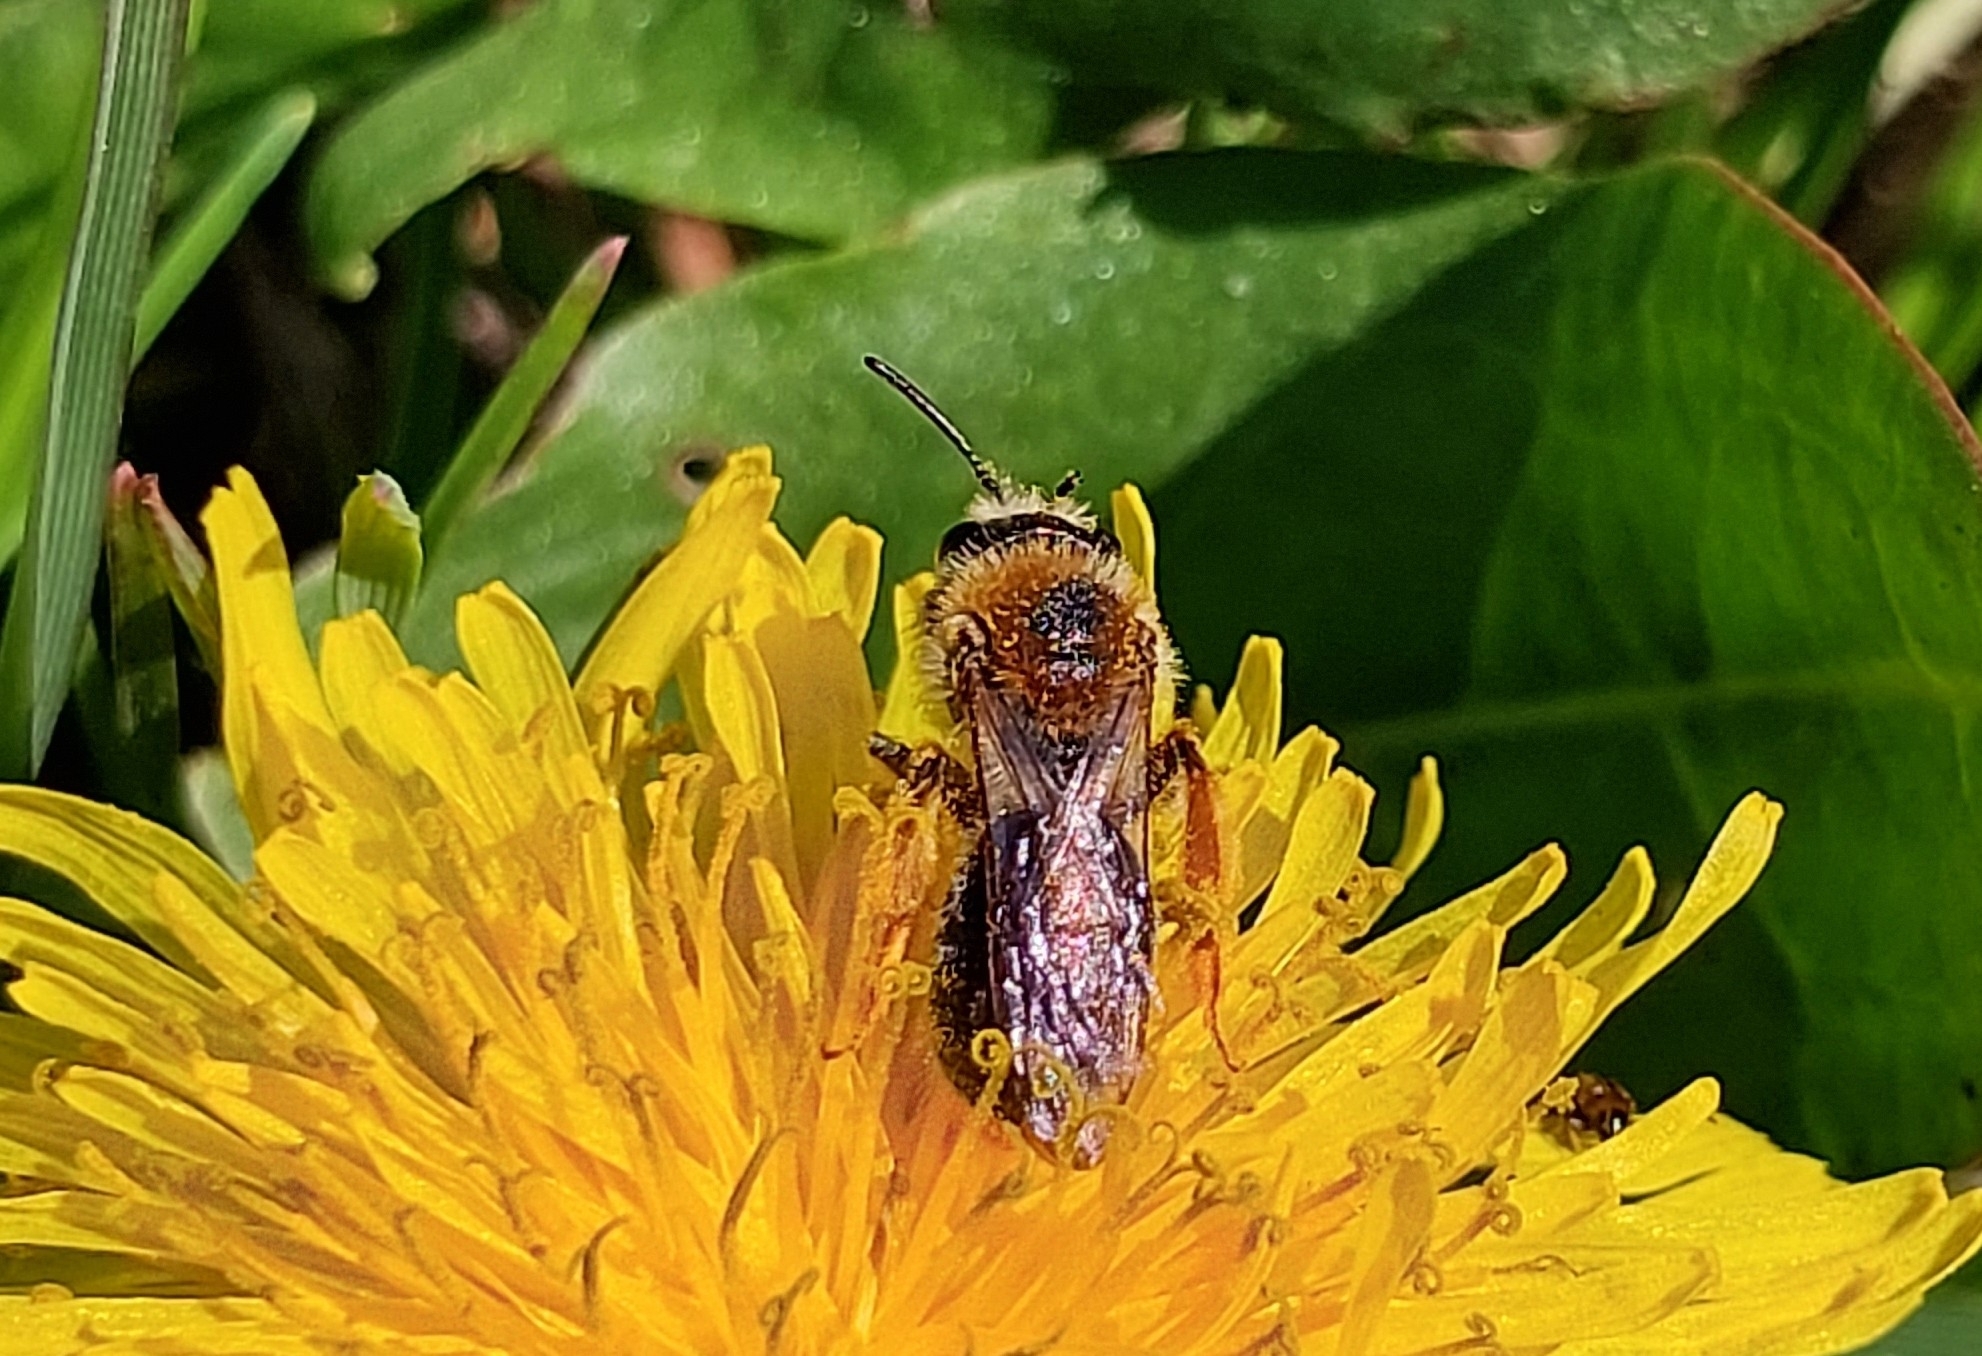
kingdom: Animalia
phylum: Arthropoda
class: Insecta
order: Hymenoptera
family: Andrenidae
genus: Andrena
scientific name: Andrena haemorrhoa
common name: Early mining bee
